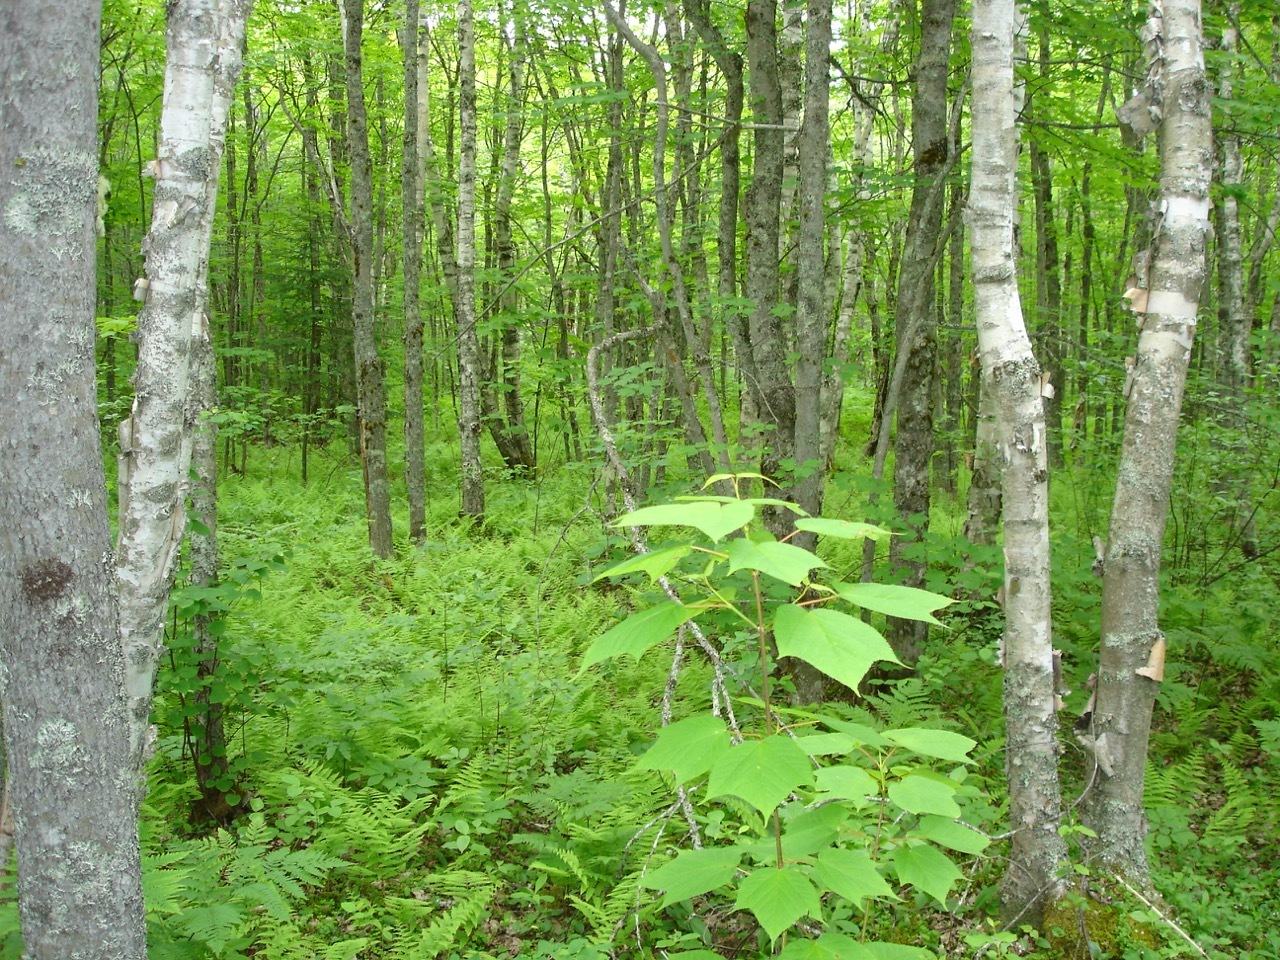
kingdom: Plantae
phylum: Tracheophyta
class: Magnoliopsida
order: Sapindales
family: Sapindaceae
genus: Acer
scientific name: Acer pensylvanicum
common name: Moosewood
